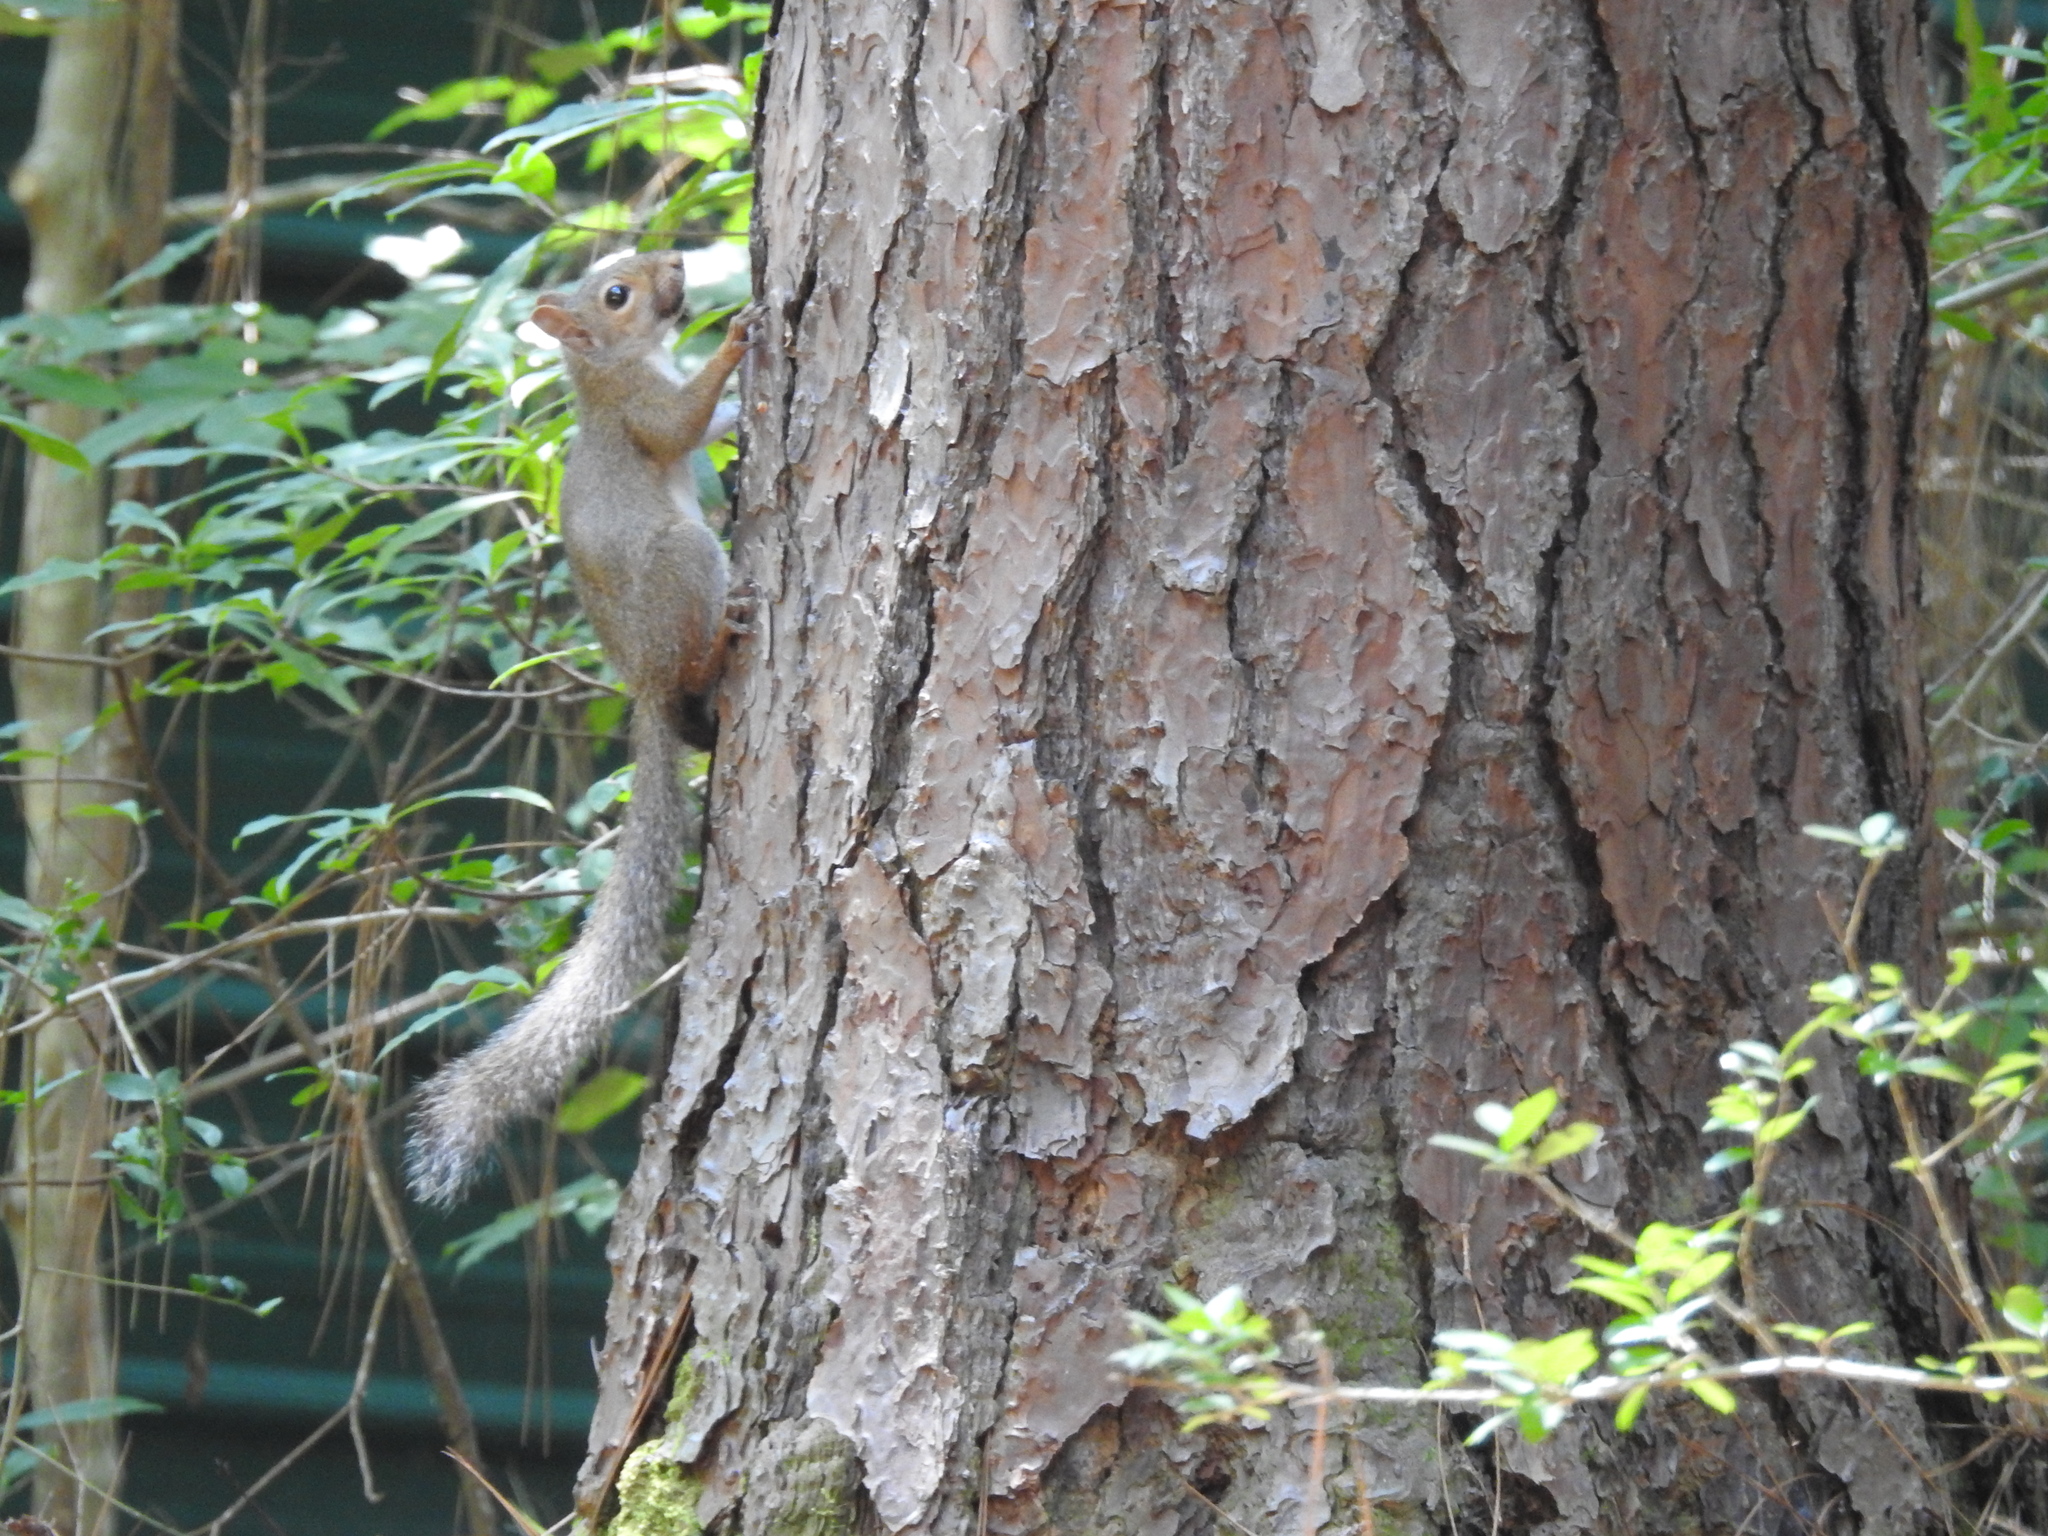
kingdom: Animalia
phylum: Chordata
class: Mammalia
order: Rodentia
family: Sciuridae
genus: Sciurus
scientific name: Sciurus carolinensis
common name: Eastern gray squirrel
